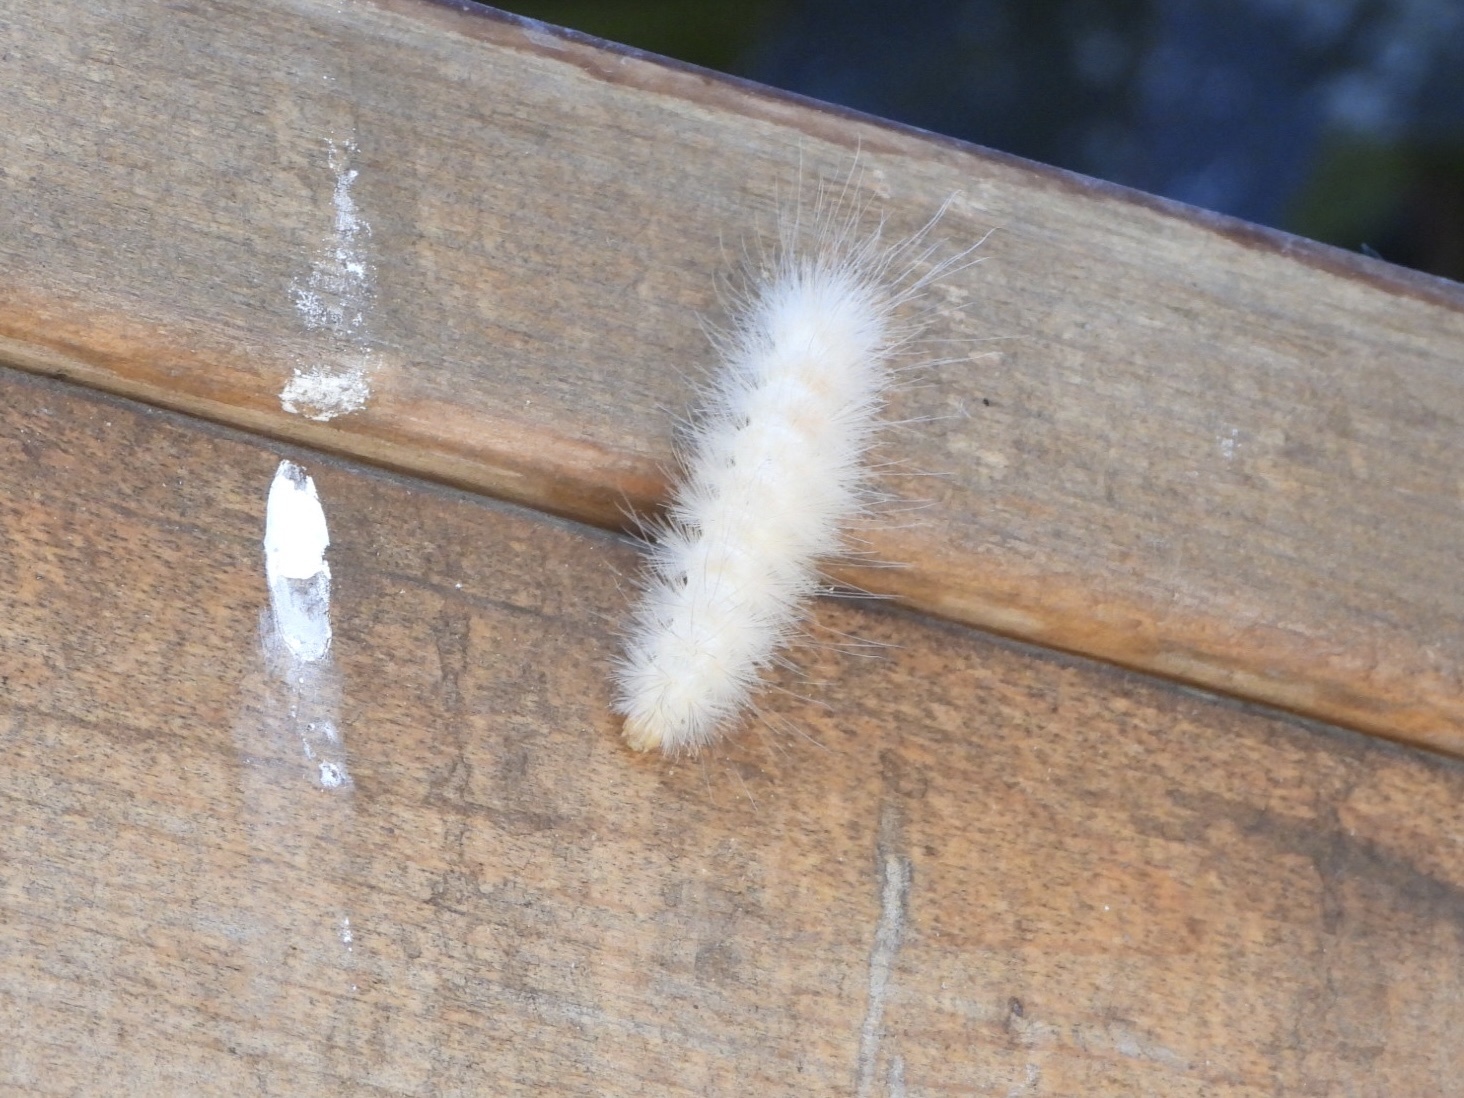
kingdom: Animalia
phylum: Arthropoda
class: Insecta
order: Lepidoptera
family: Erebidae
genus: Spilosoma
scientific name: Spilosoma virginica
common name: Virginia tiger moth
